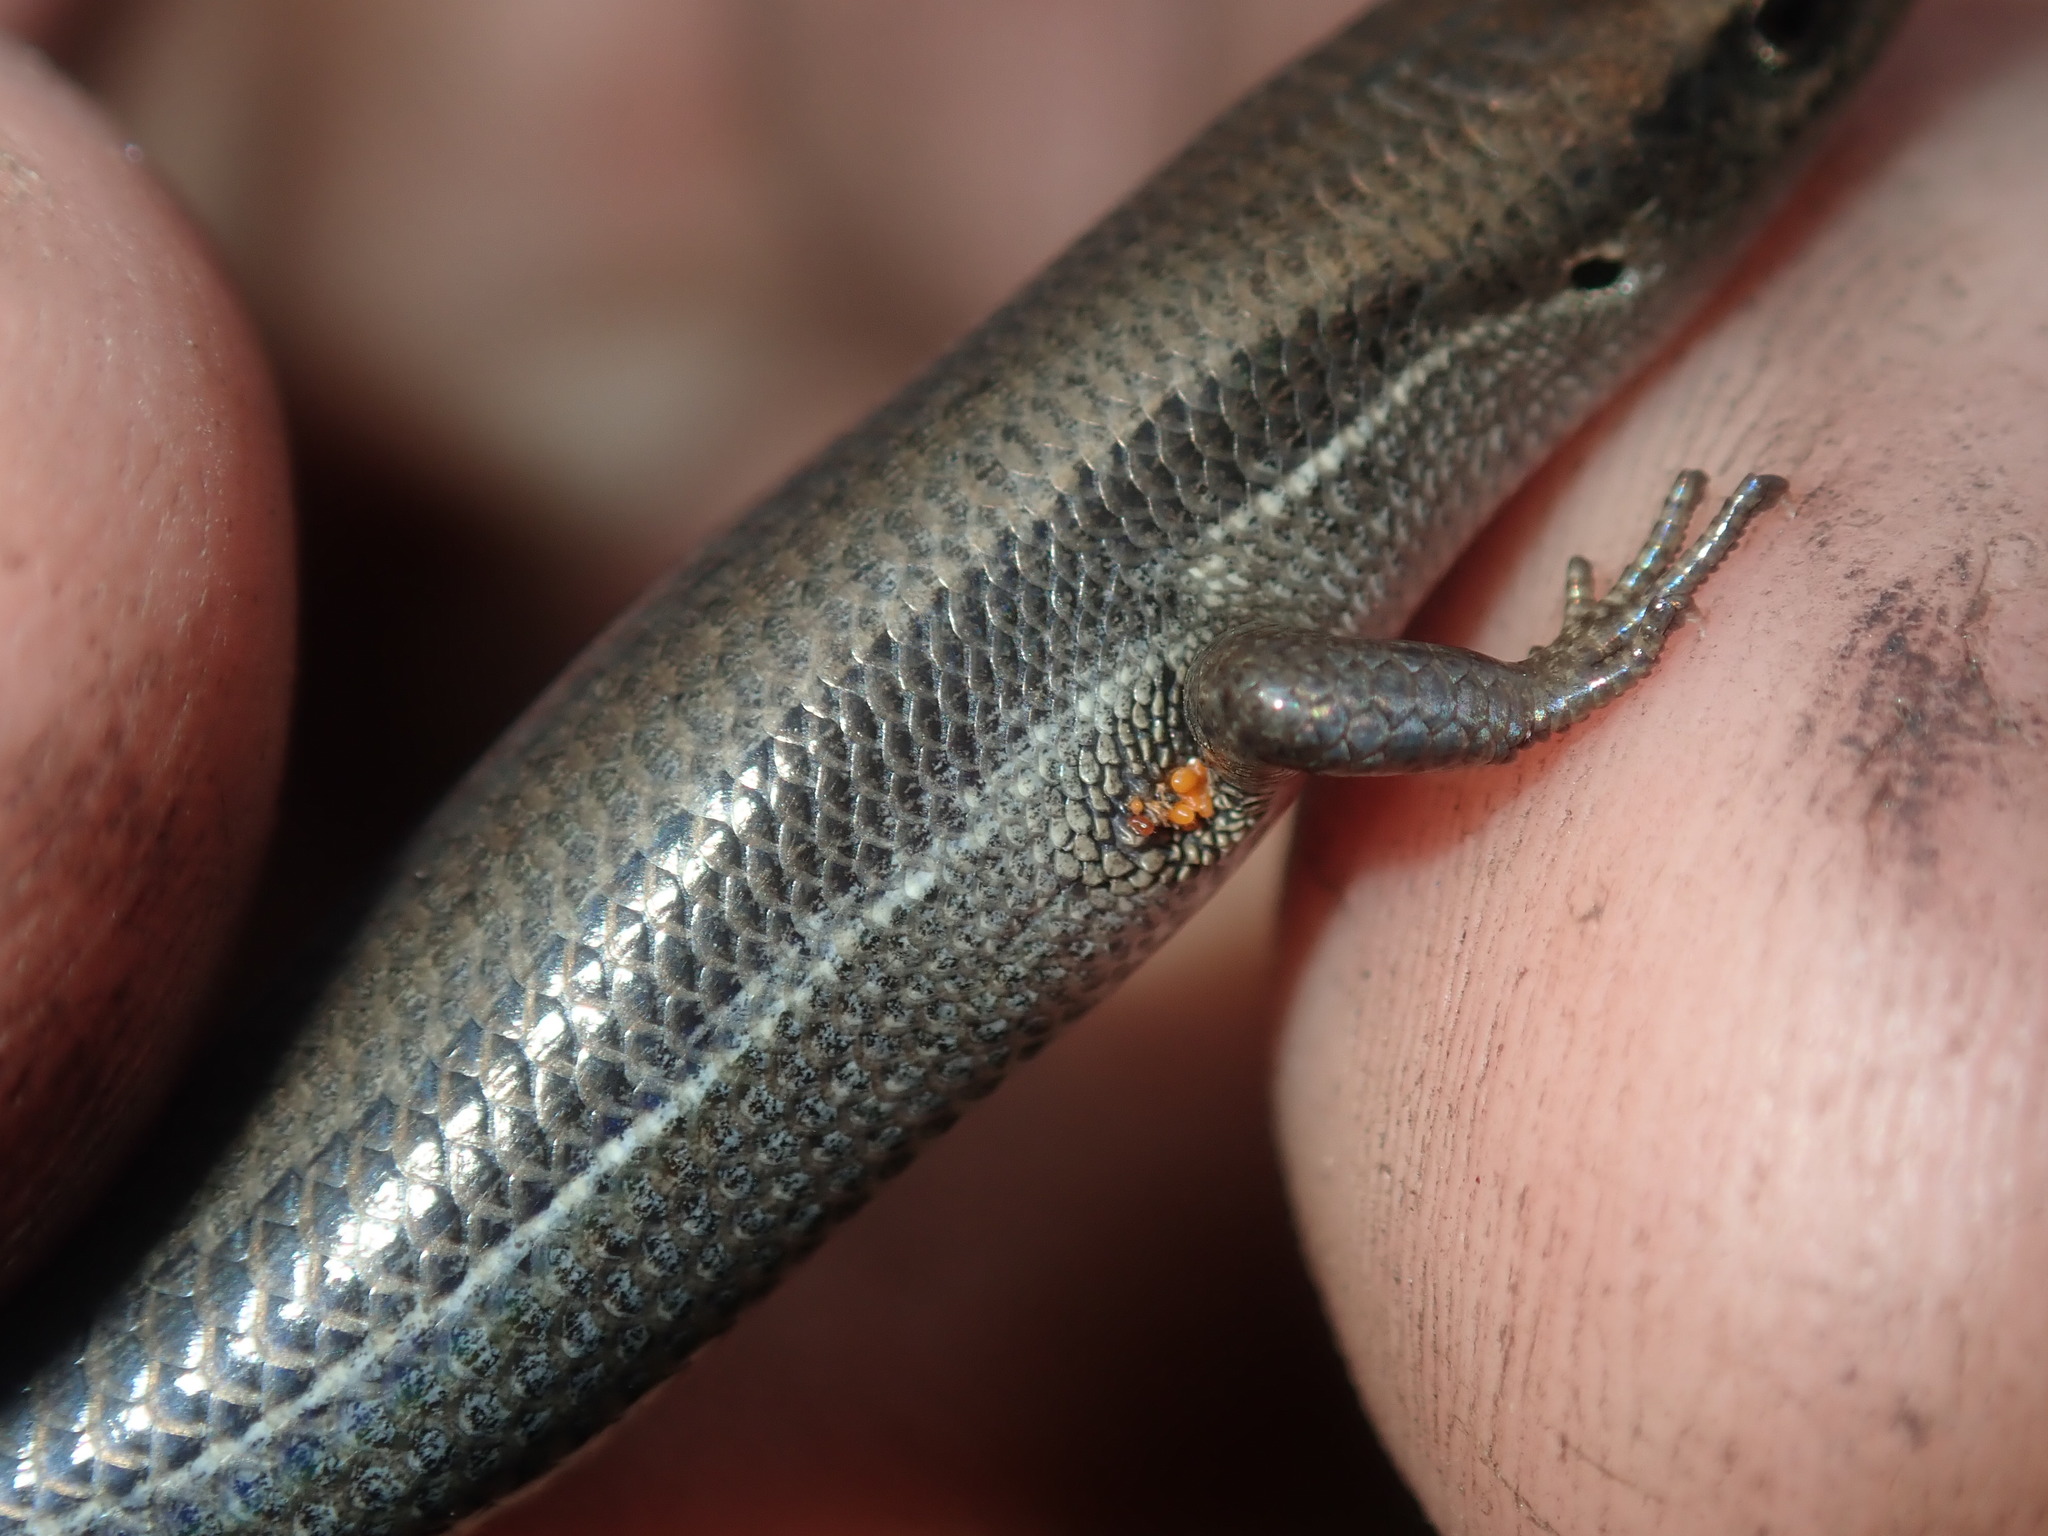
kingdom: Animalia
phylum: Chordata
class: Squamata
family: Scincidae
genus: Lampropholis
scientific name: Lampropholis delicata
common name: Plague skink
